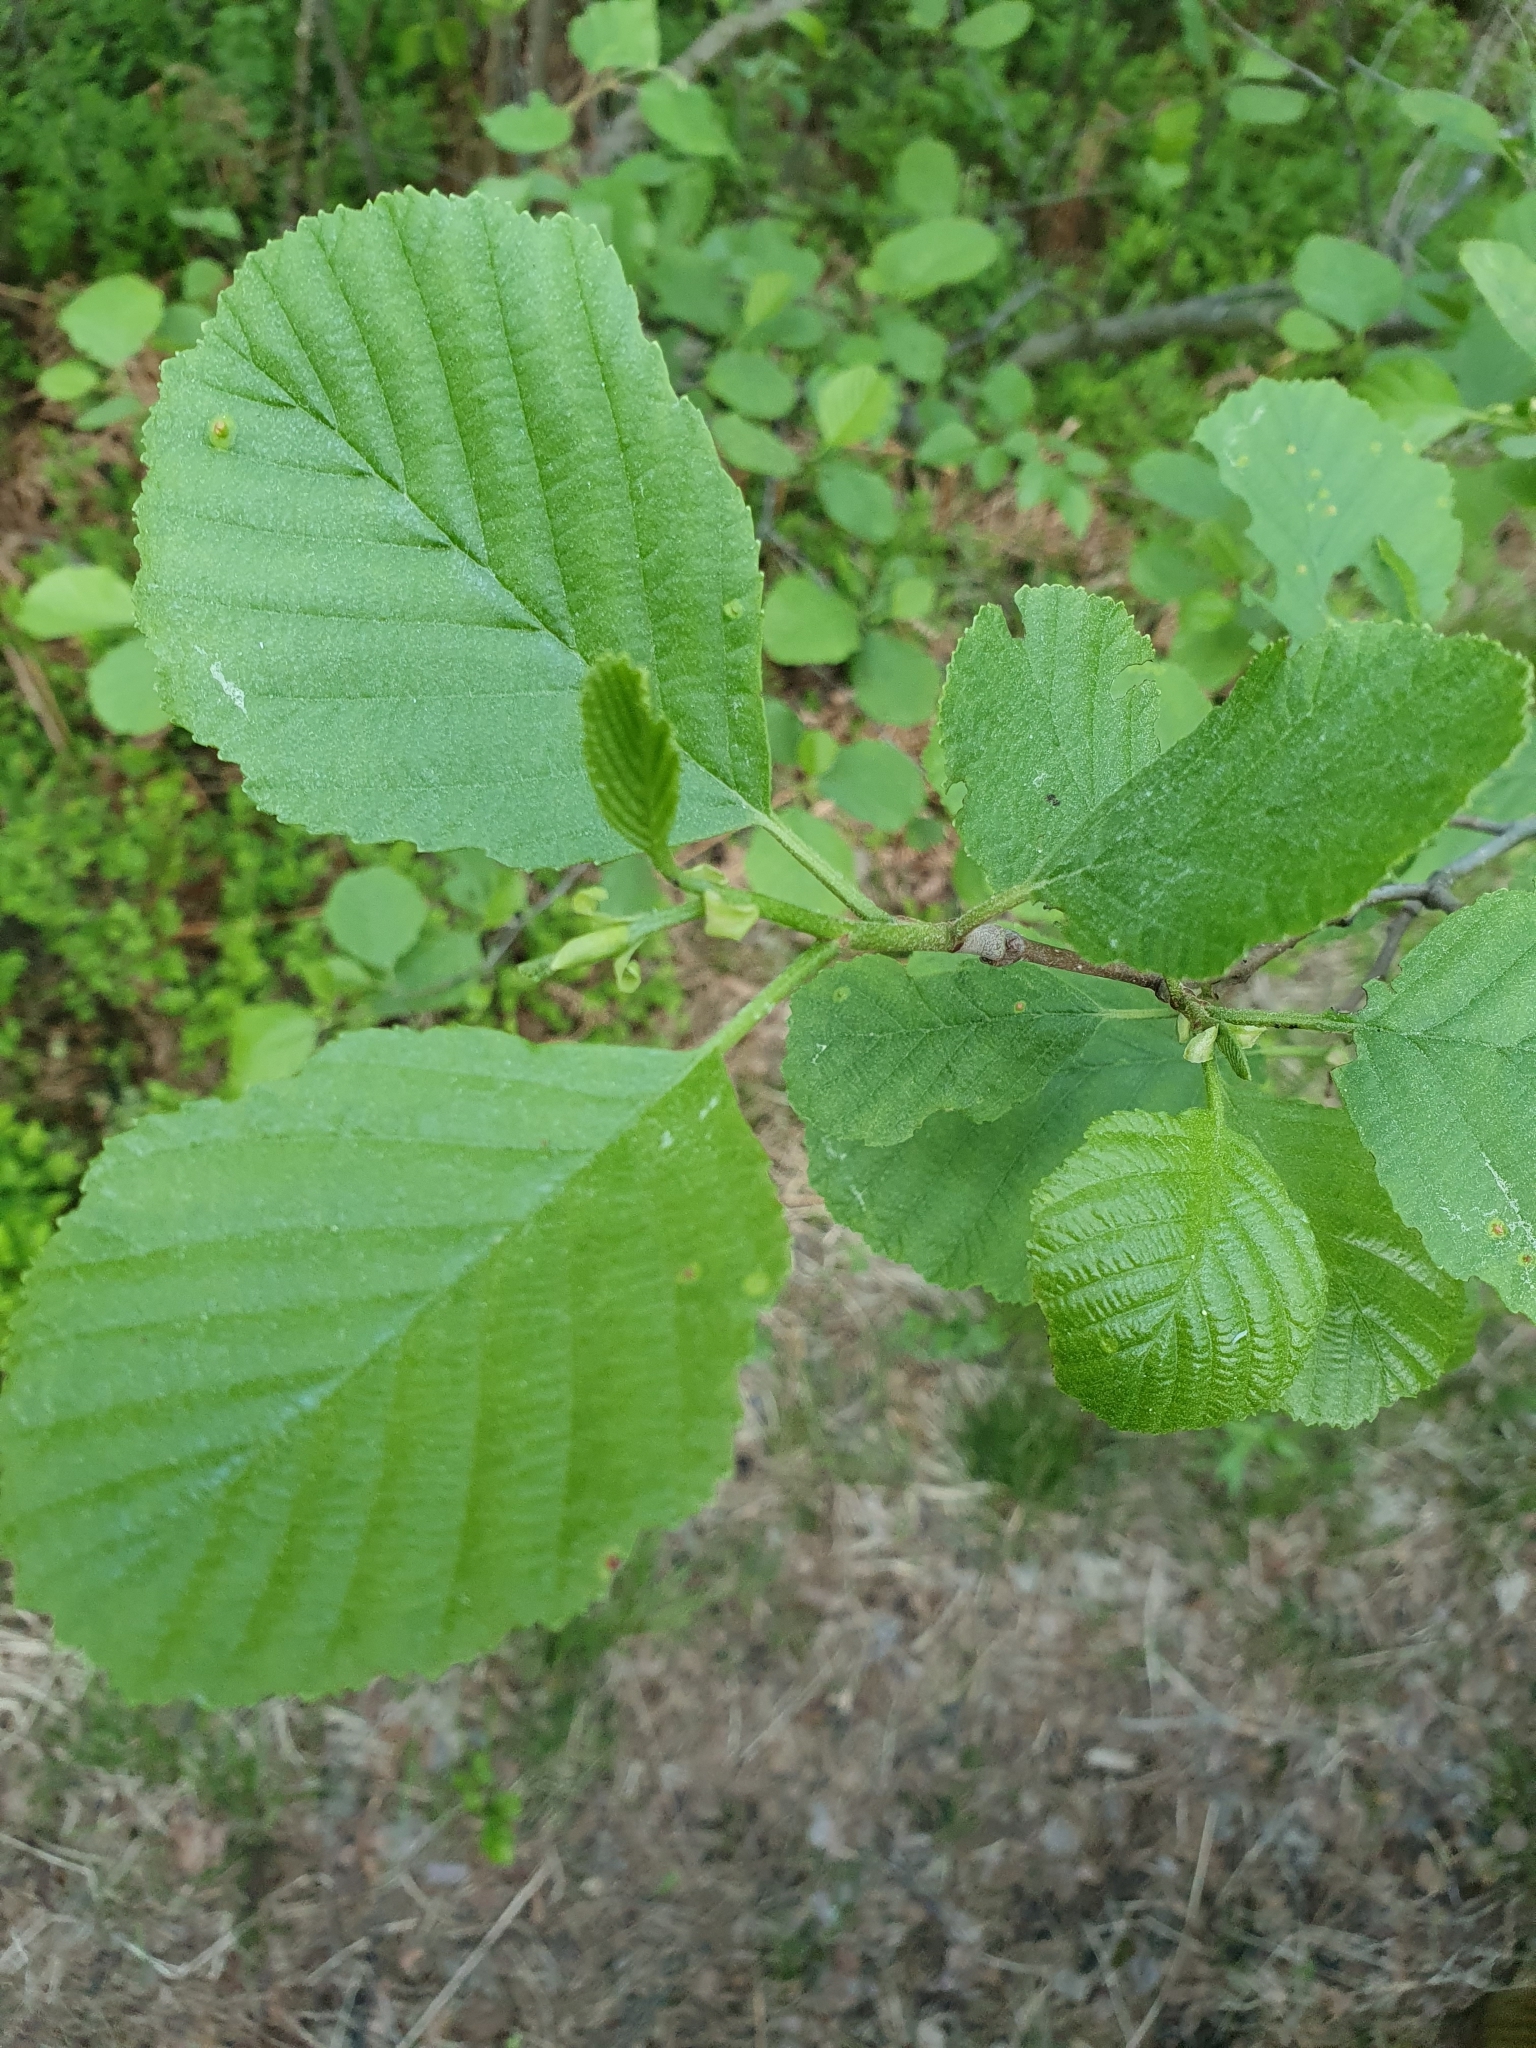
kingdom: Plantae
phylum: Tracheophyta
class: Magnoliopsida
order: Fagales
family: Betulaceae
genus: Alnus
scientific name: Alnus glutinosa
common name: Black alder
